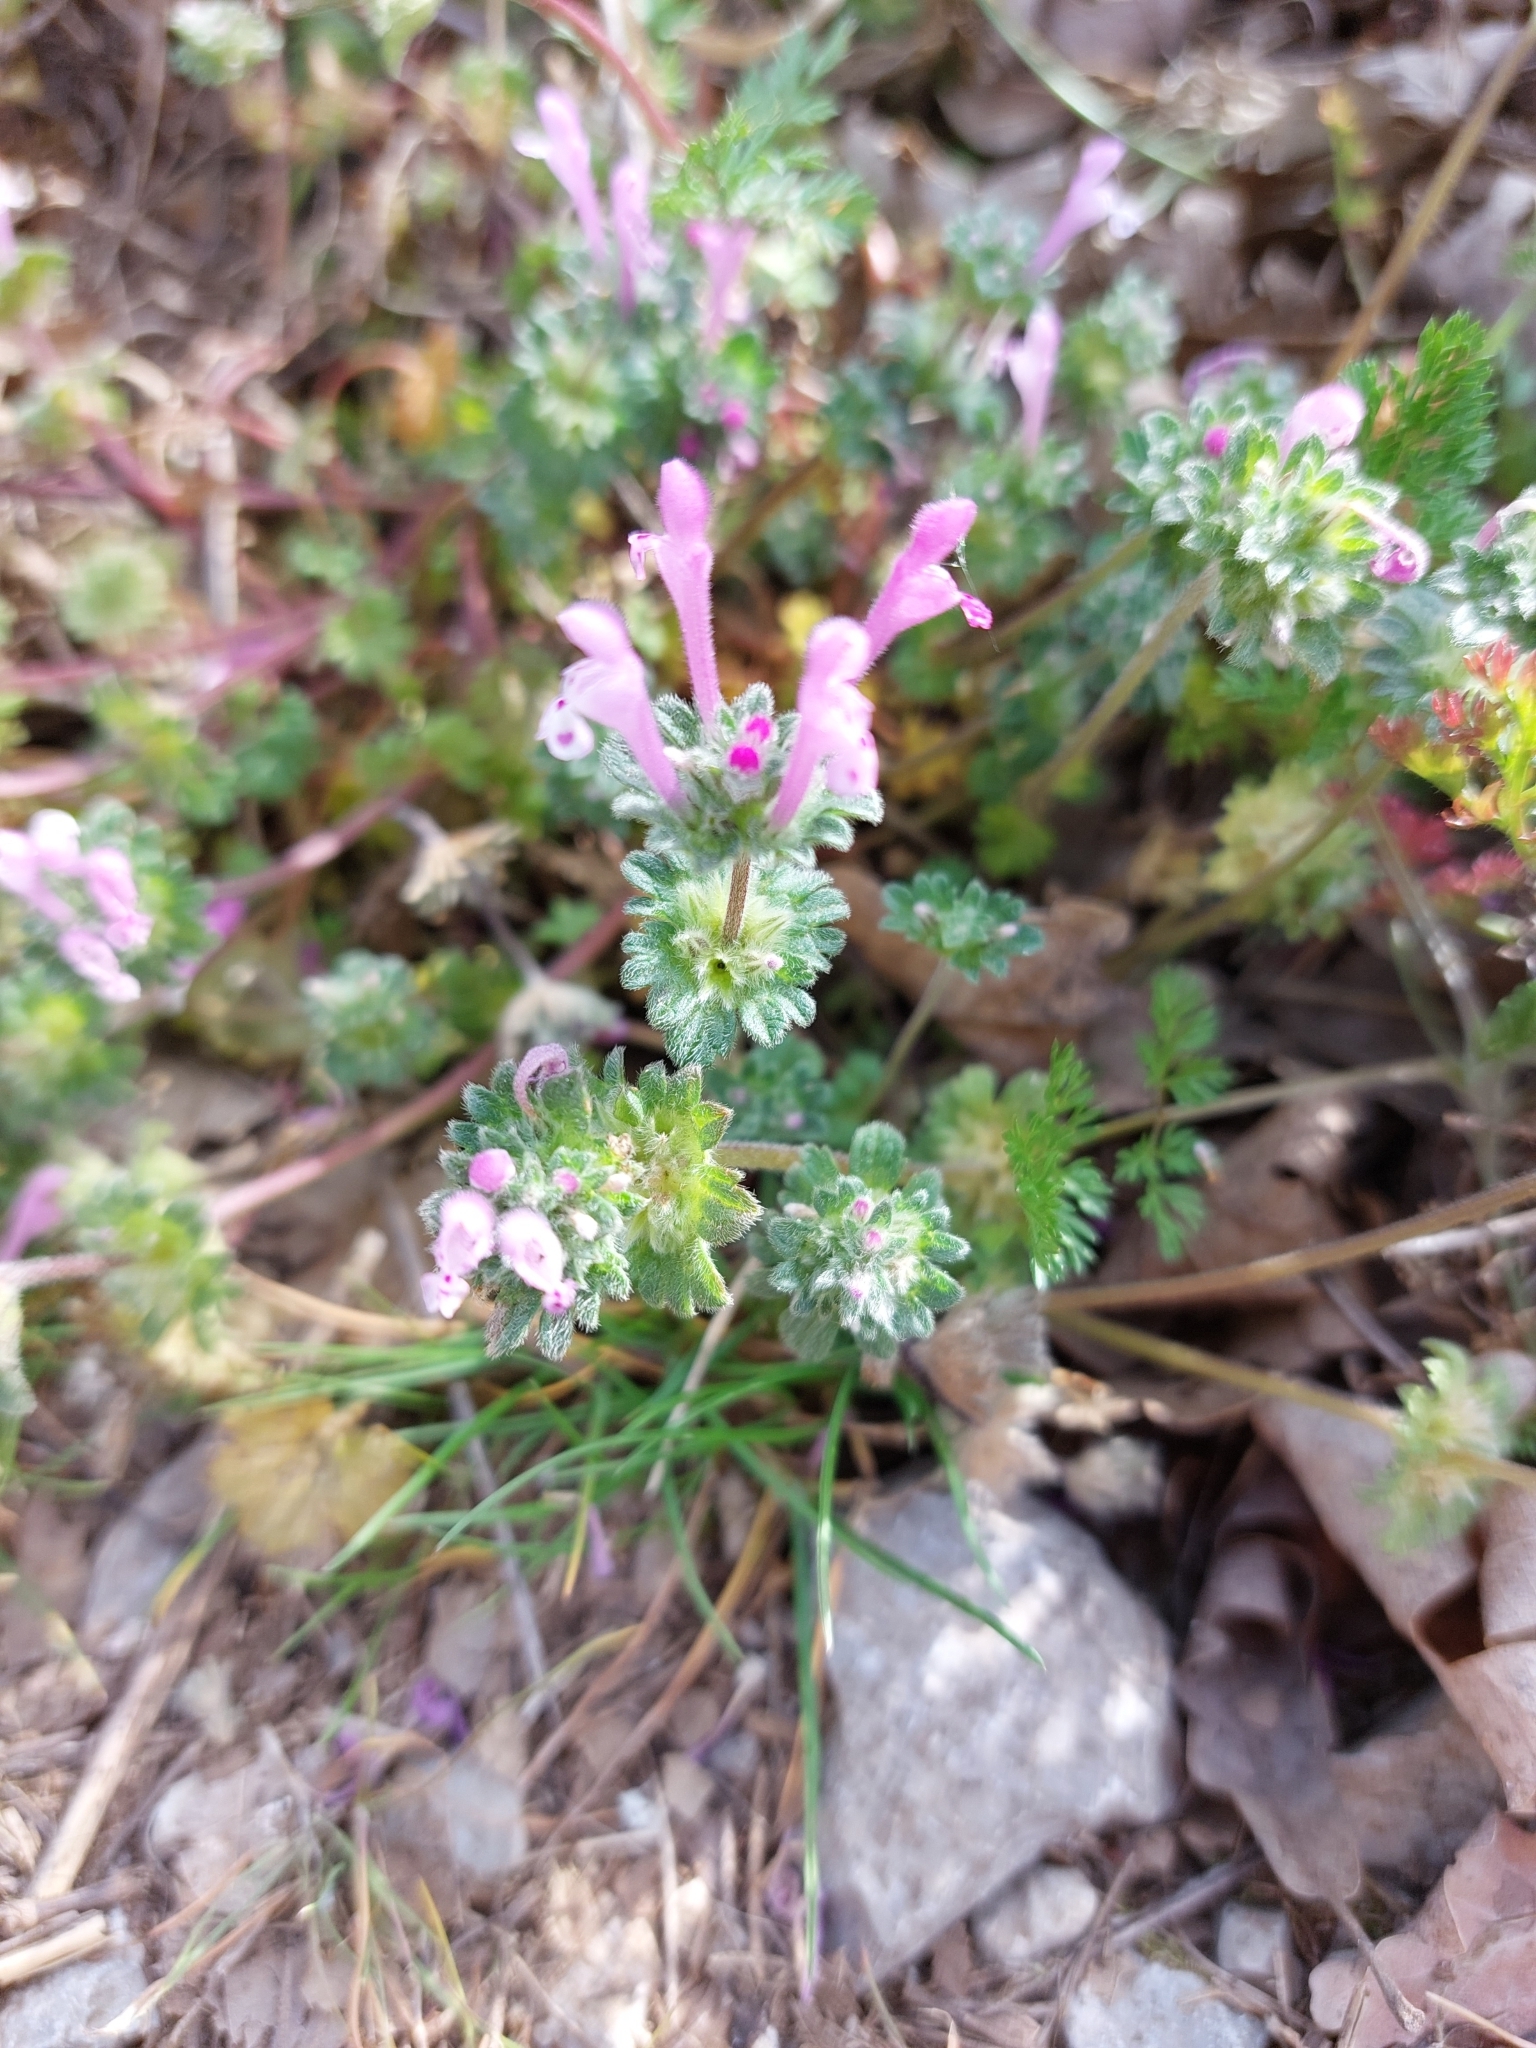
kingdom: Plantae
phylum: Tracheophyta
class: Magnoliopsida
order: Lamiales
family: Lamiaceae
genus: Lamium
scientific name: Lamium amplexicaule
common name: Henbit dead-nettle
